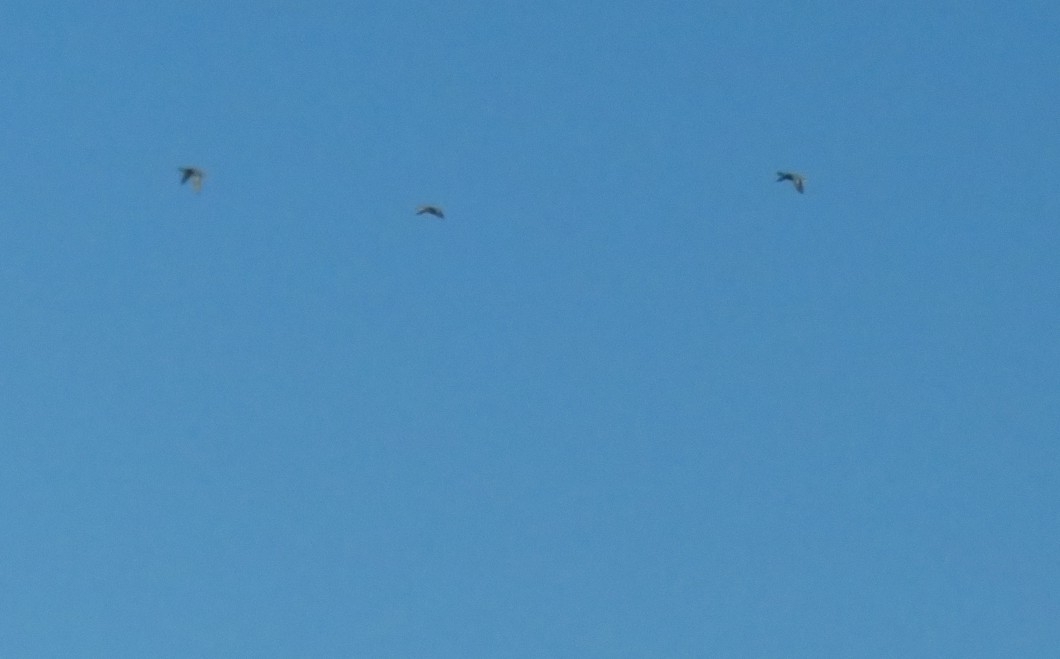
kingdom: Animalia
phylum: Chordata
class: Aves
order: Anseriformes
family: Anatidae
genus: Anas
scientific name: Anas platyrhynchos
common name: Mallard
